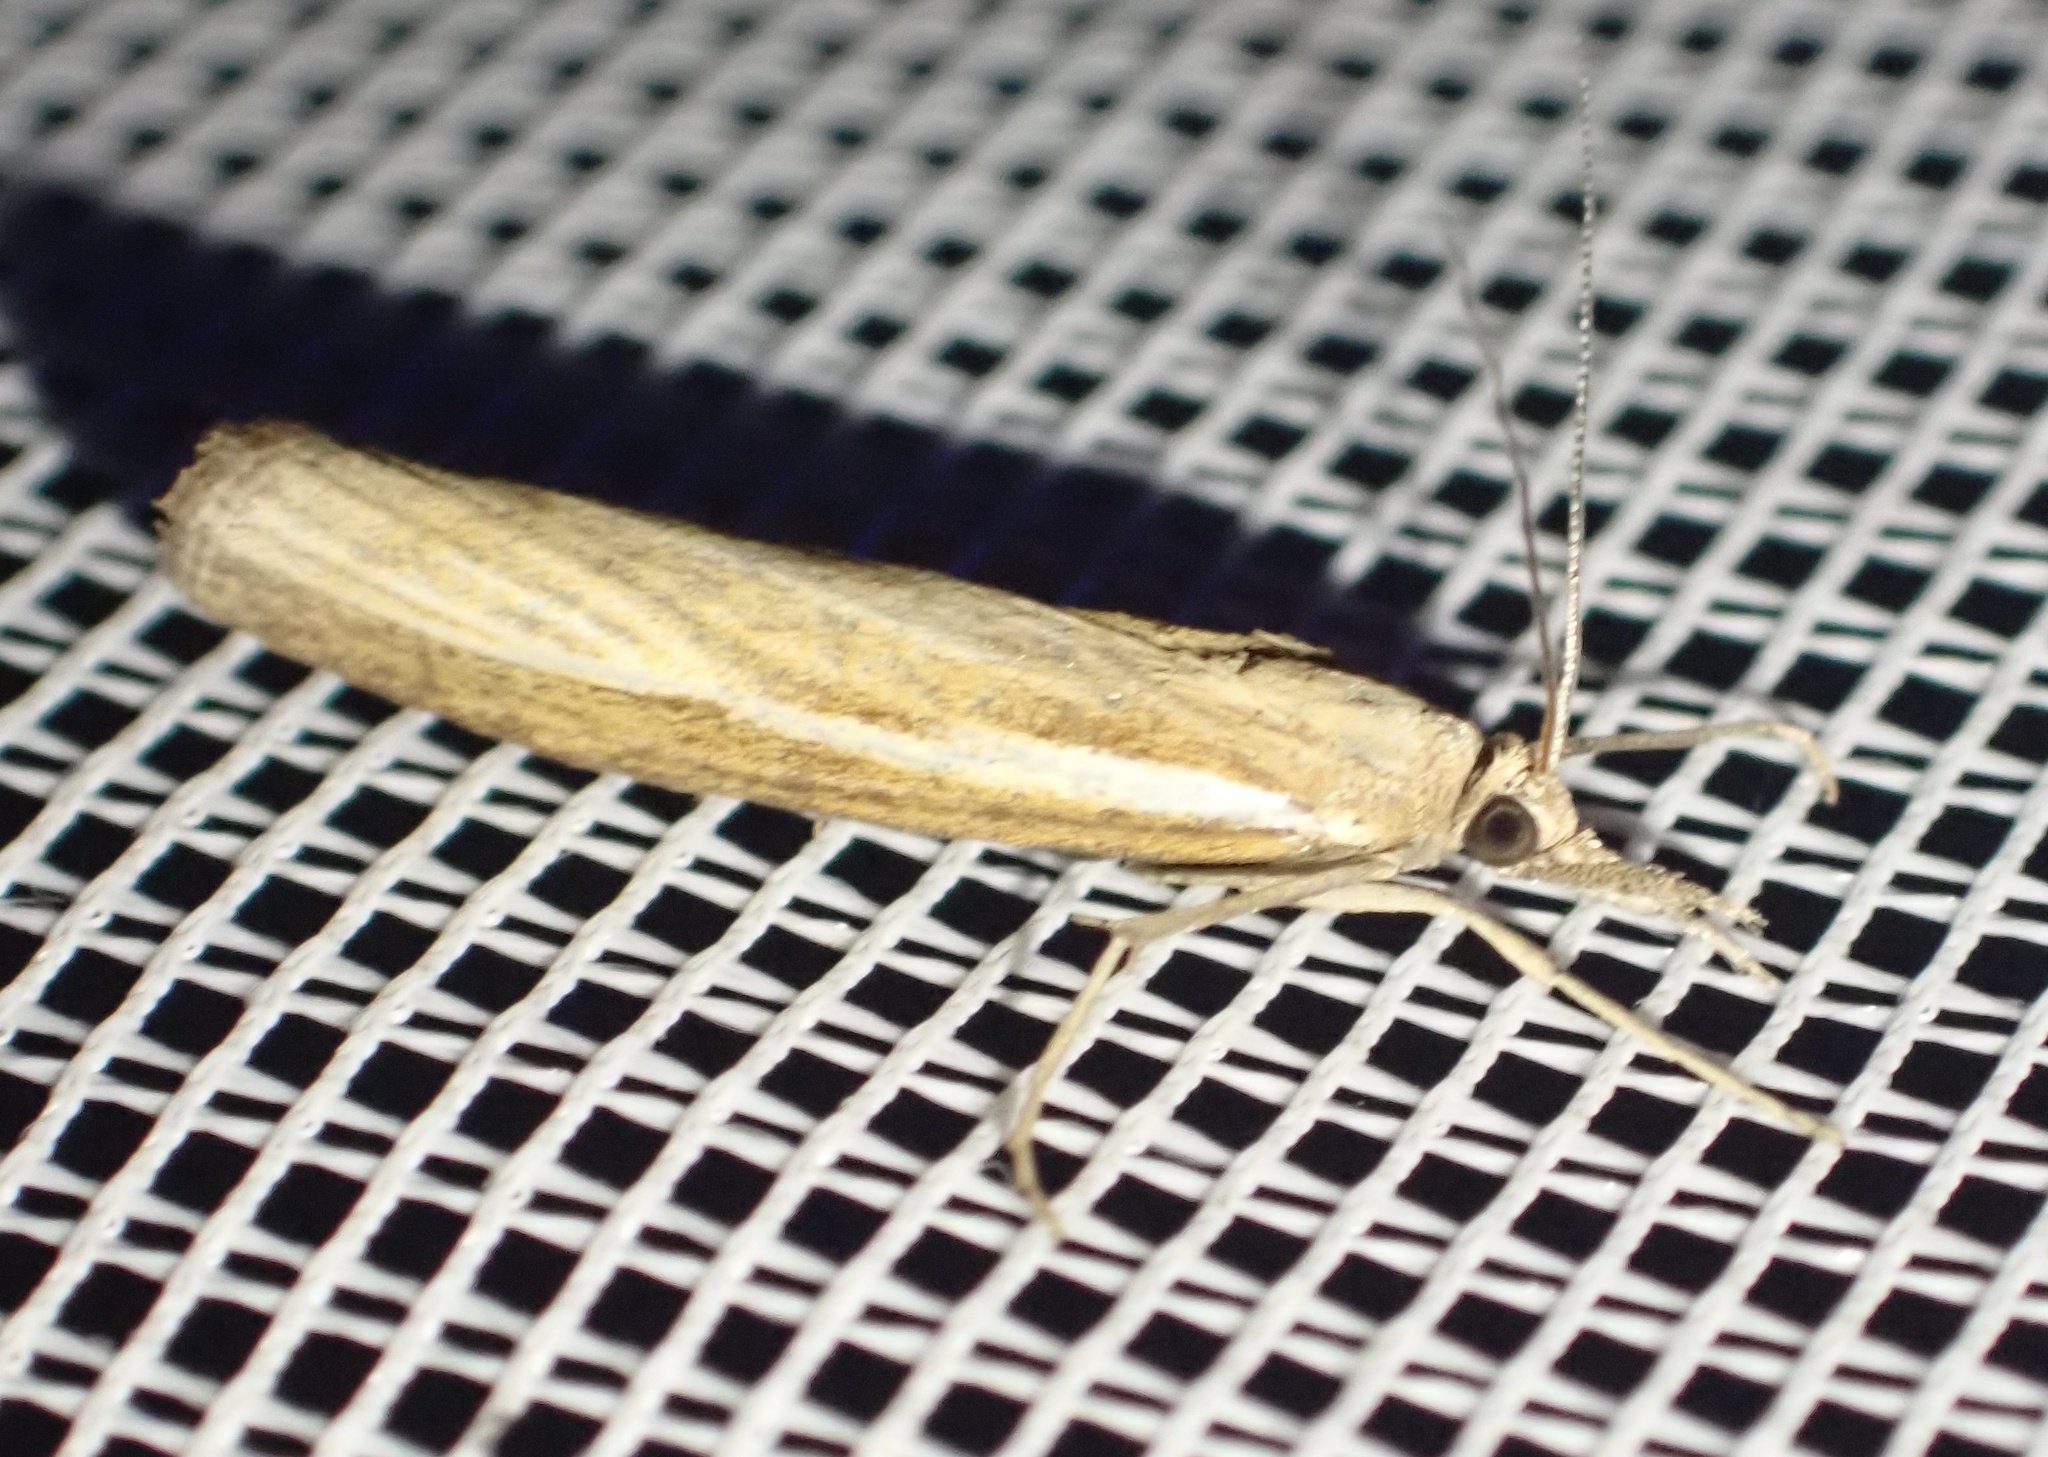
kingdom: Animalia
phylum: Arthropoda
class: Insecta
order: Lepidoptera
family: Crambidae
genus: Agriphila
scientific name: Agriphila tristellus
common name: Common grass-veneer
